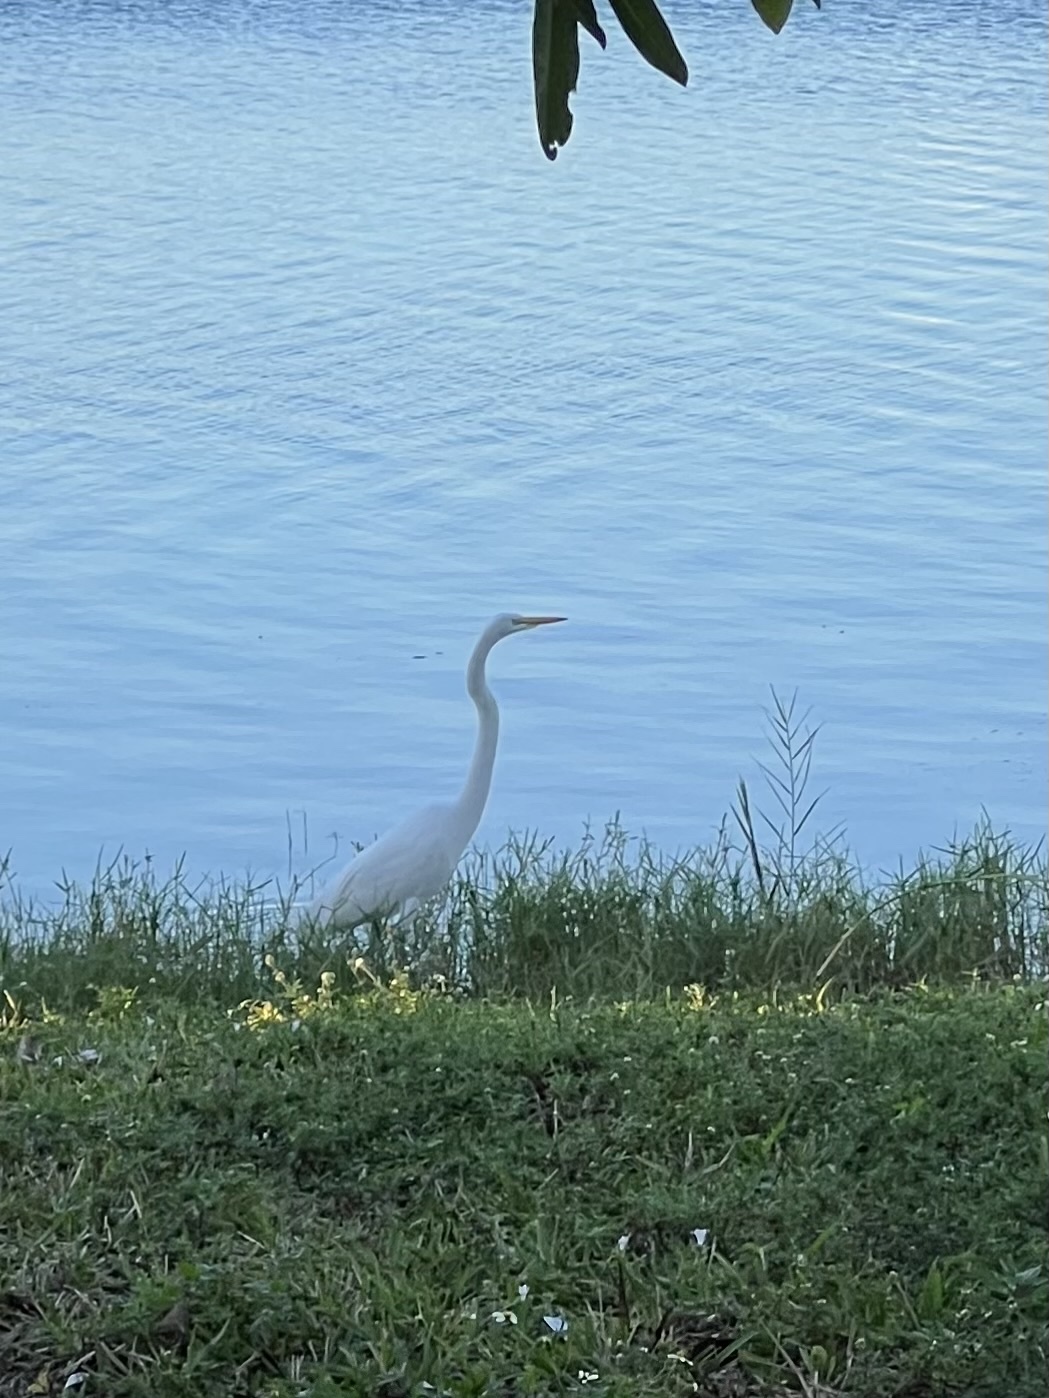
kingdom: Animalia
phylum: Chordata
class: Aves
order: Pelecaniformes
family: Ardeidae
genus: Ardea
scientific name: Ardea alba
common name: Great egret
